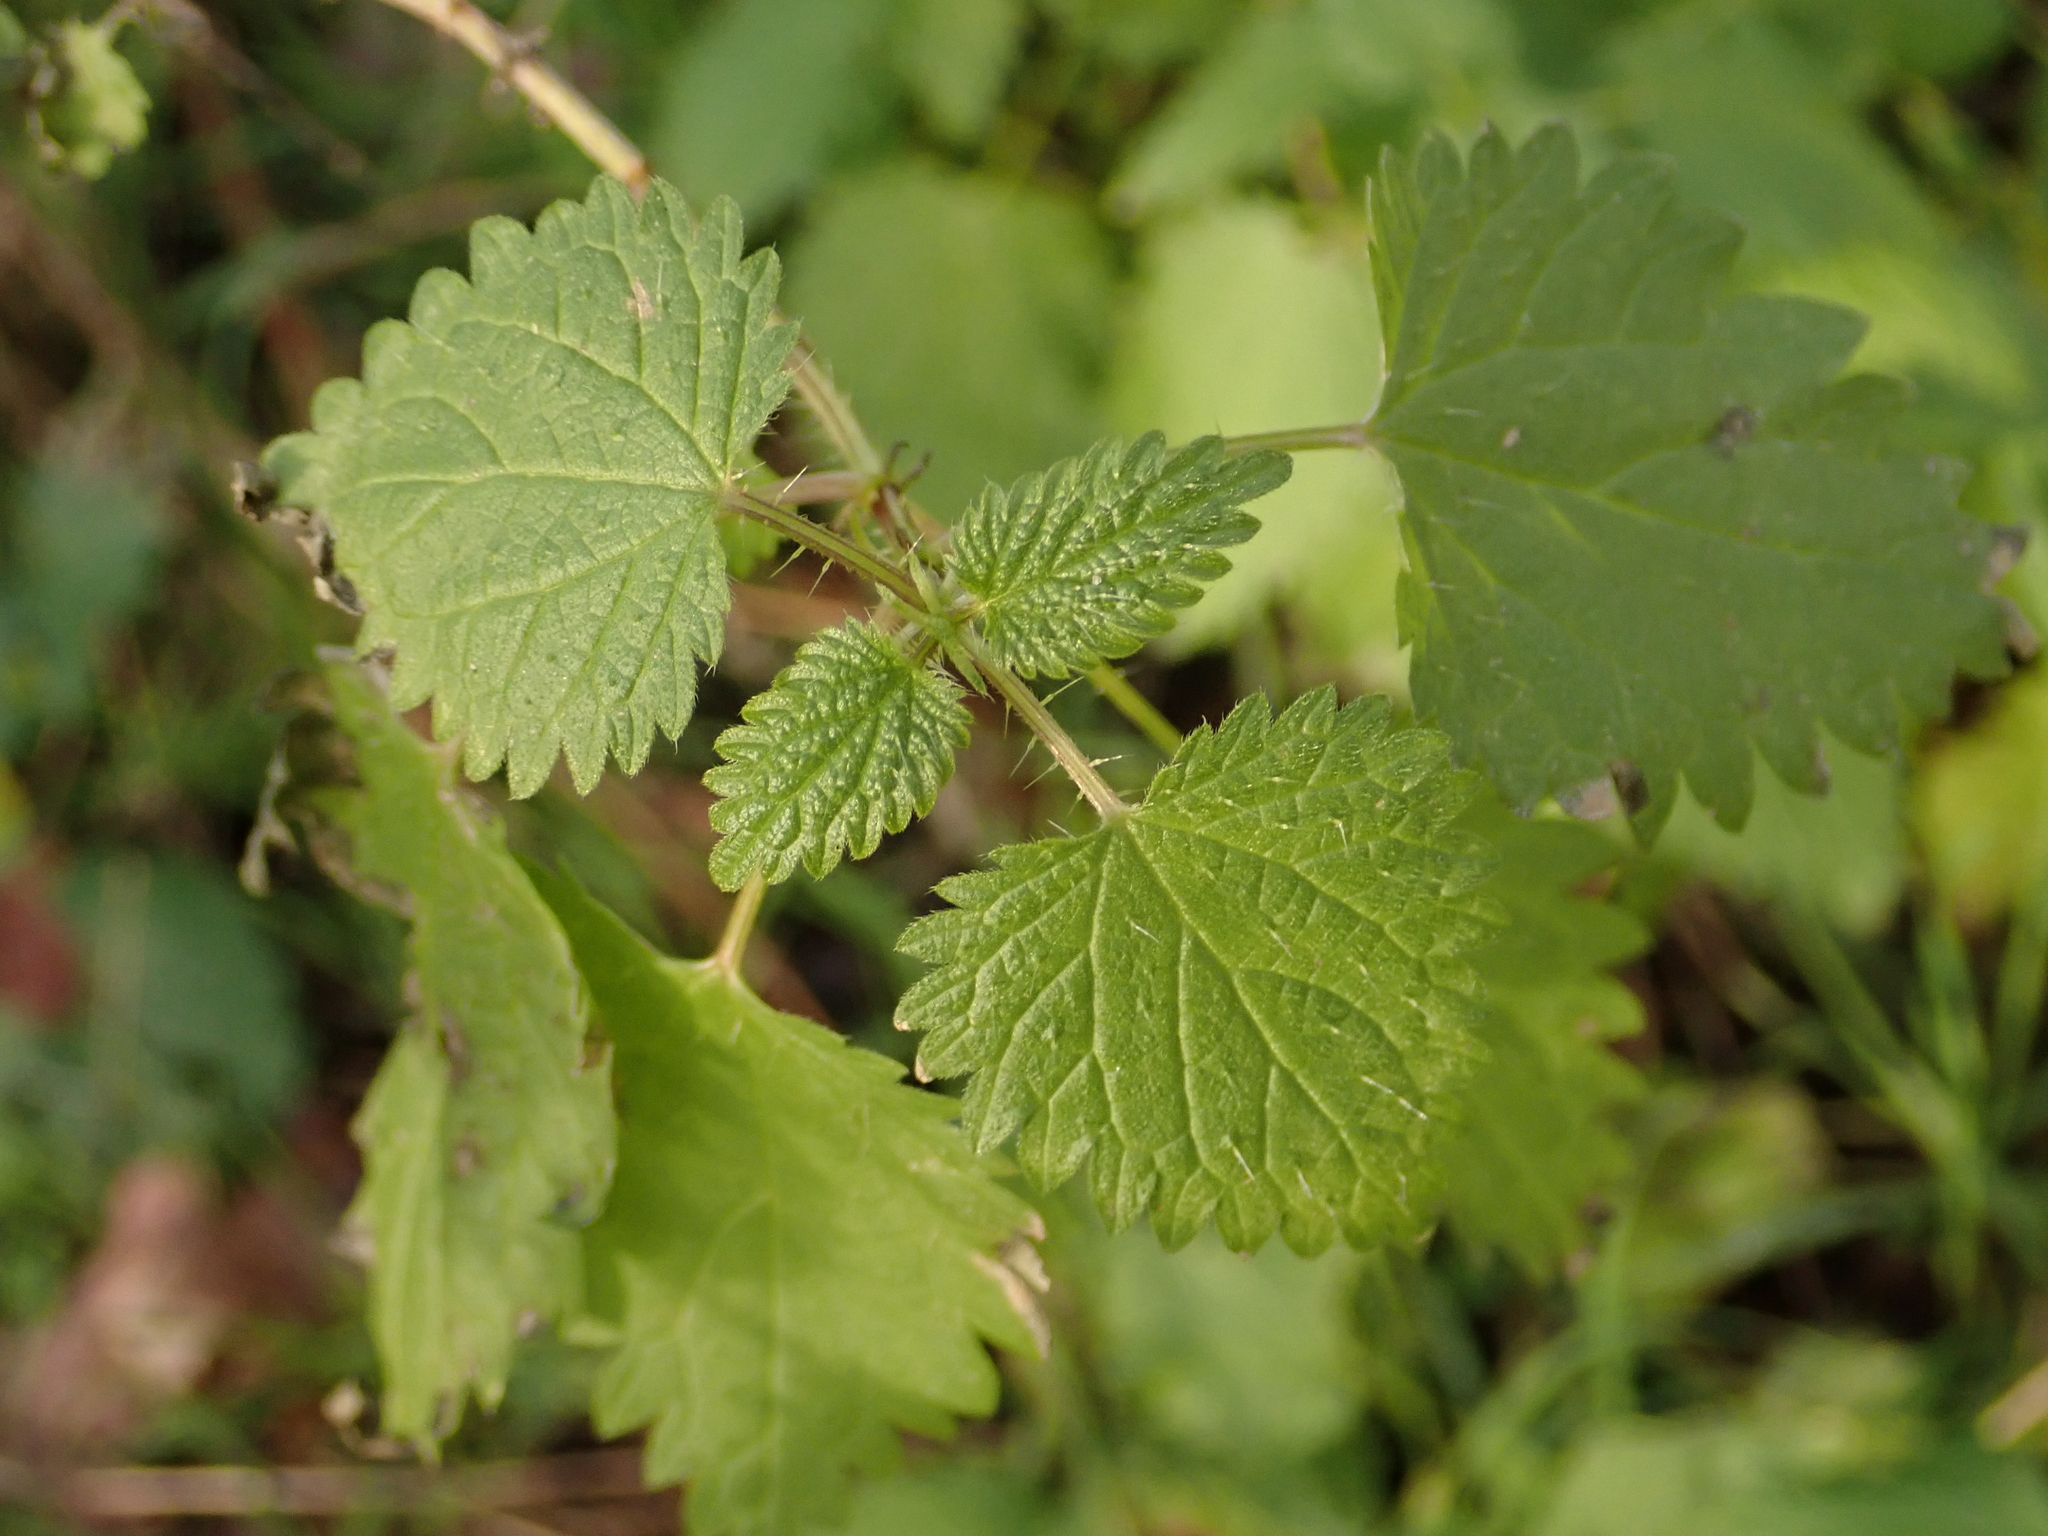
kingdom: Plantae
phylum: Tracheophyta
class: Magnoliopsida
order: Rosales
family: Urticaceae
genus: Urtica
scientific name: Urtica dioica
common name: Common nettle
